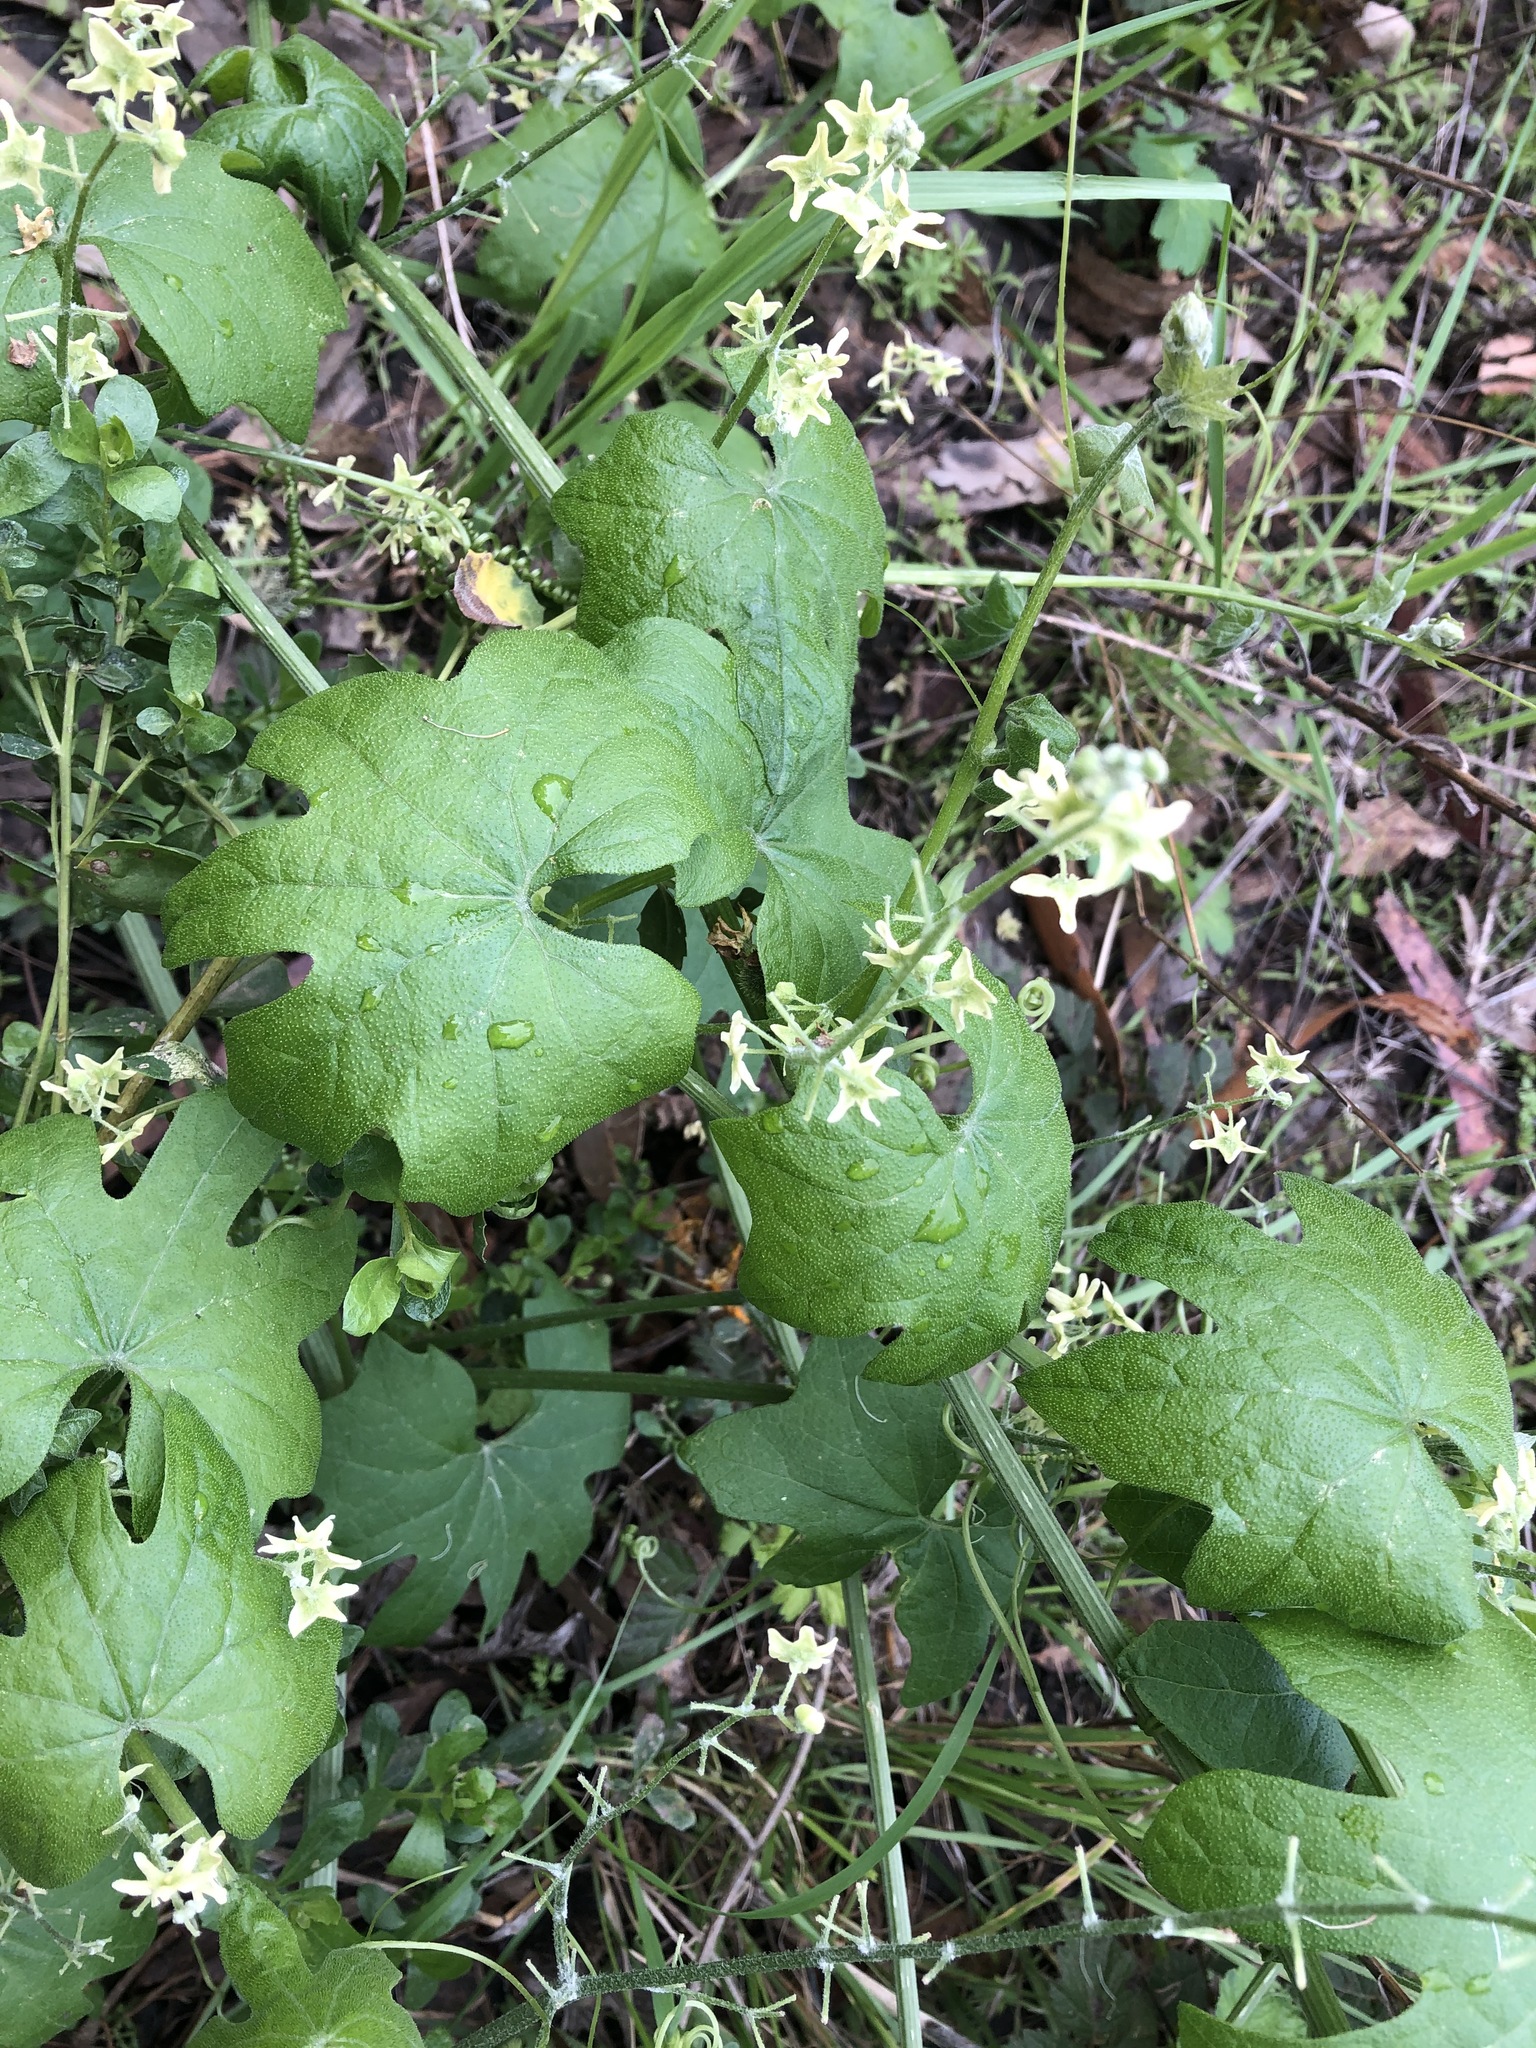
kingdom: Plantae
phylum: Tracheophyta
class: Magnoliopsida
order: Cucurbitales
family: Cucurbitaceae
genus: Marah
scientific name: Marah fabacea
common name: California manroot
